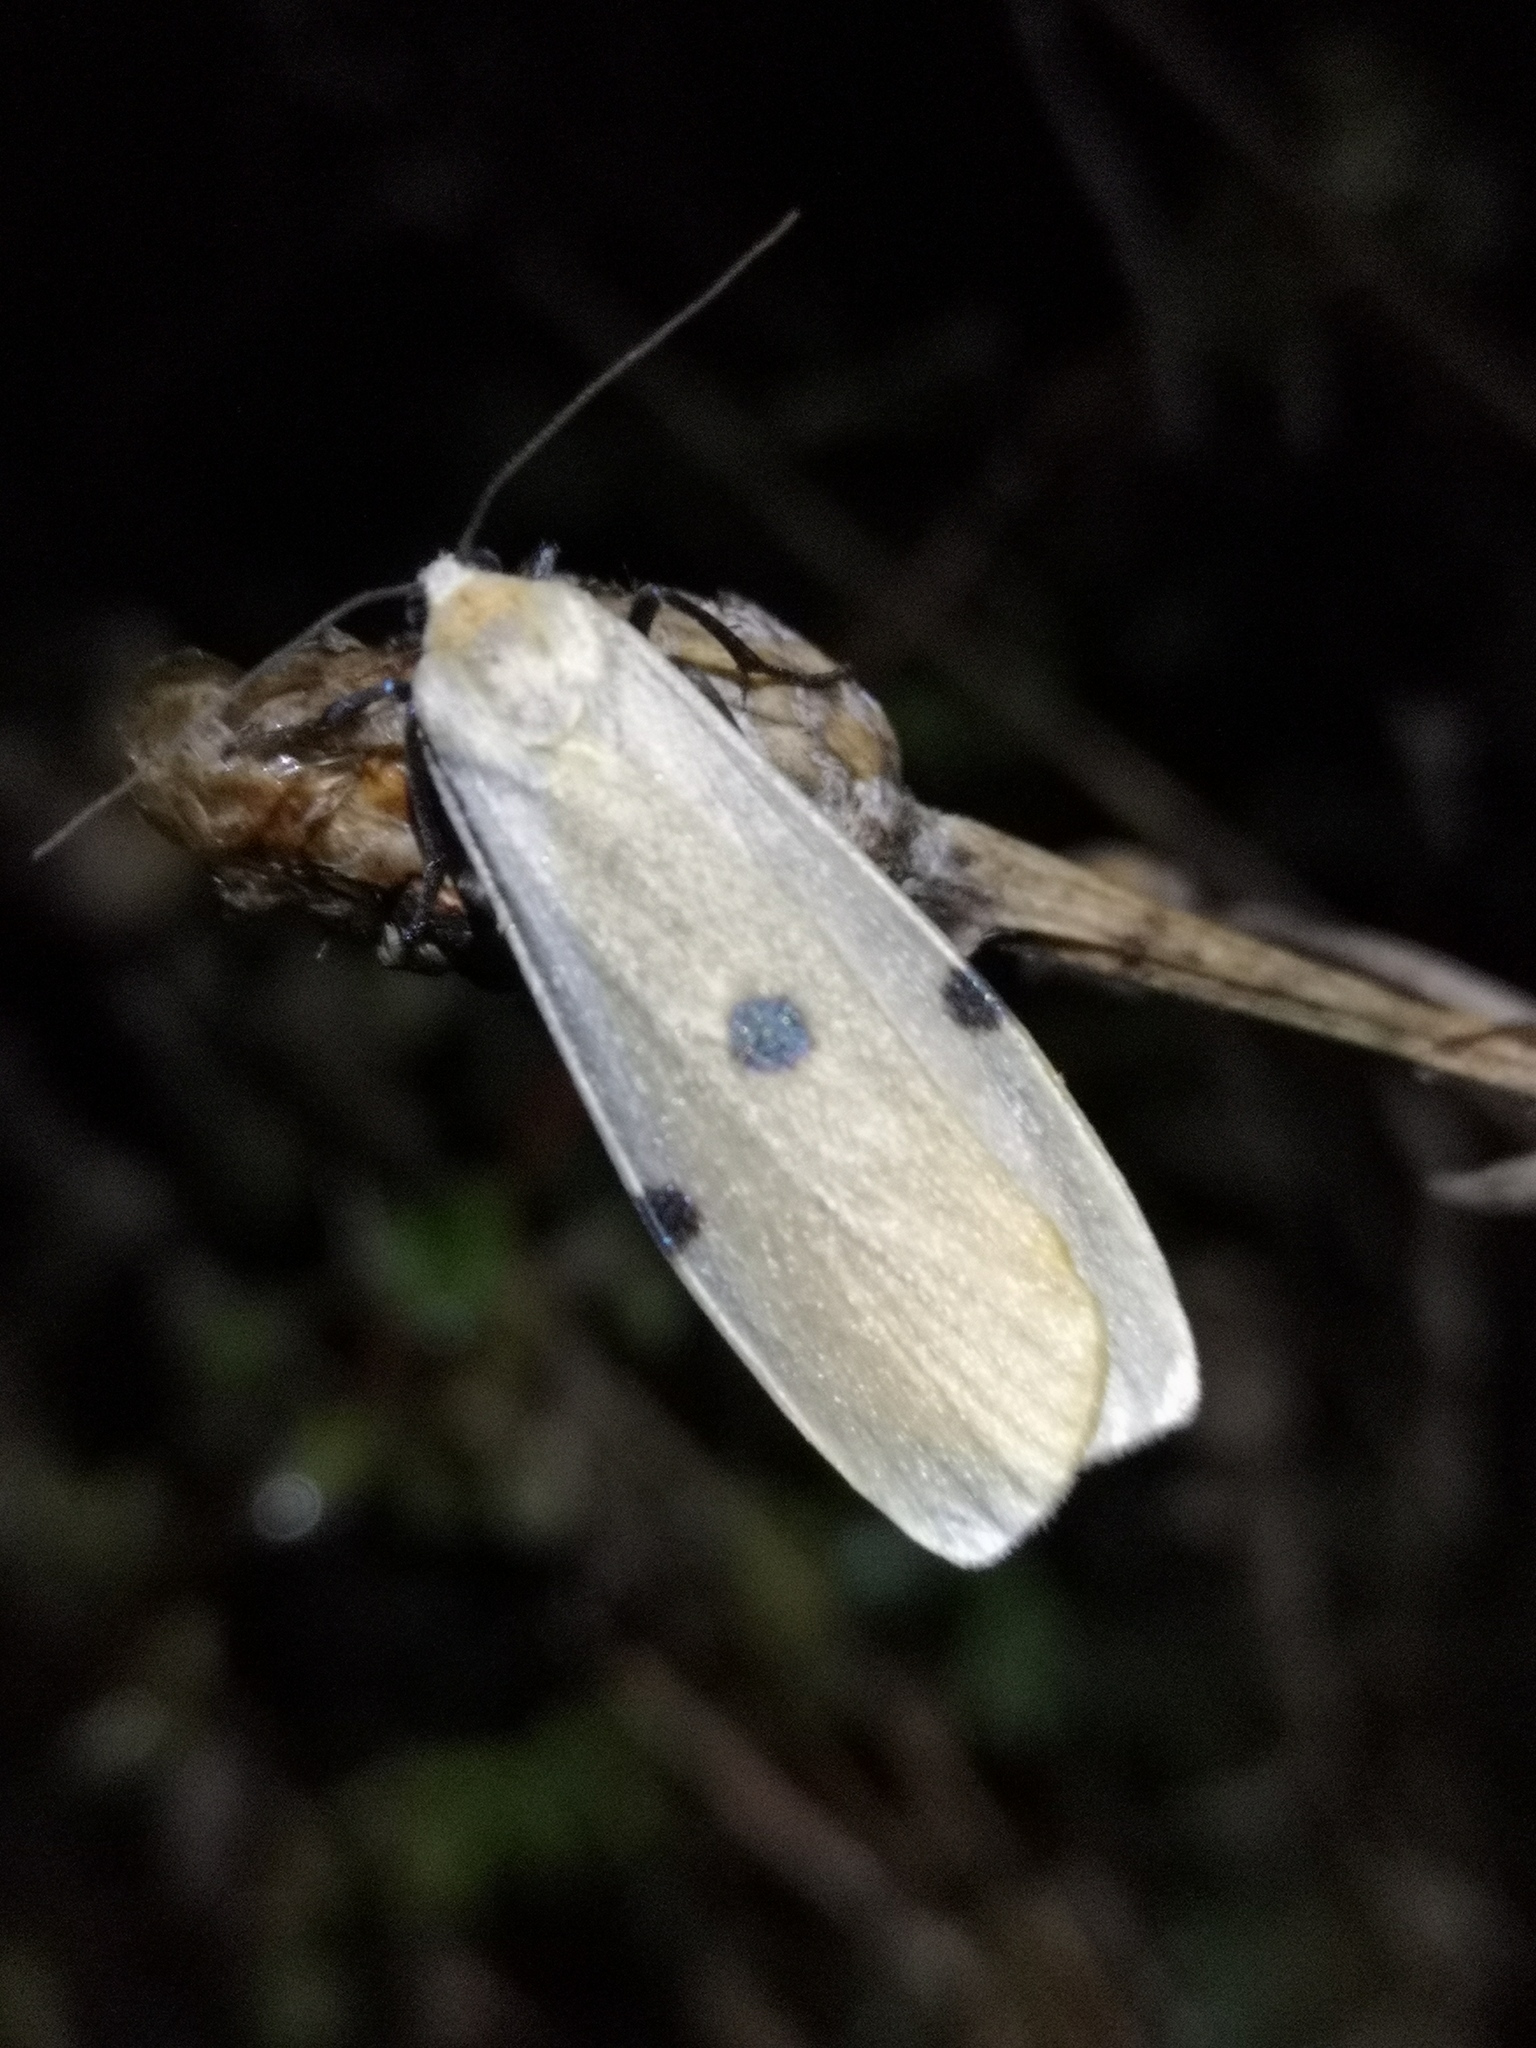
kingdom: Animalia
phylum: Arthropoda
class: Insecta
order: Lepidoptera
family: Erebidae
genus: Lithosia
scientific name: Lithosia quadra
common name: Four-spotted footman
